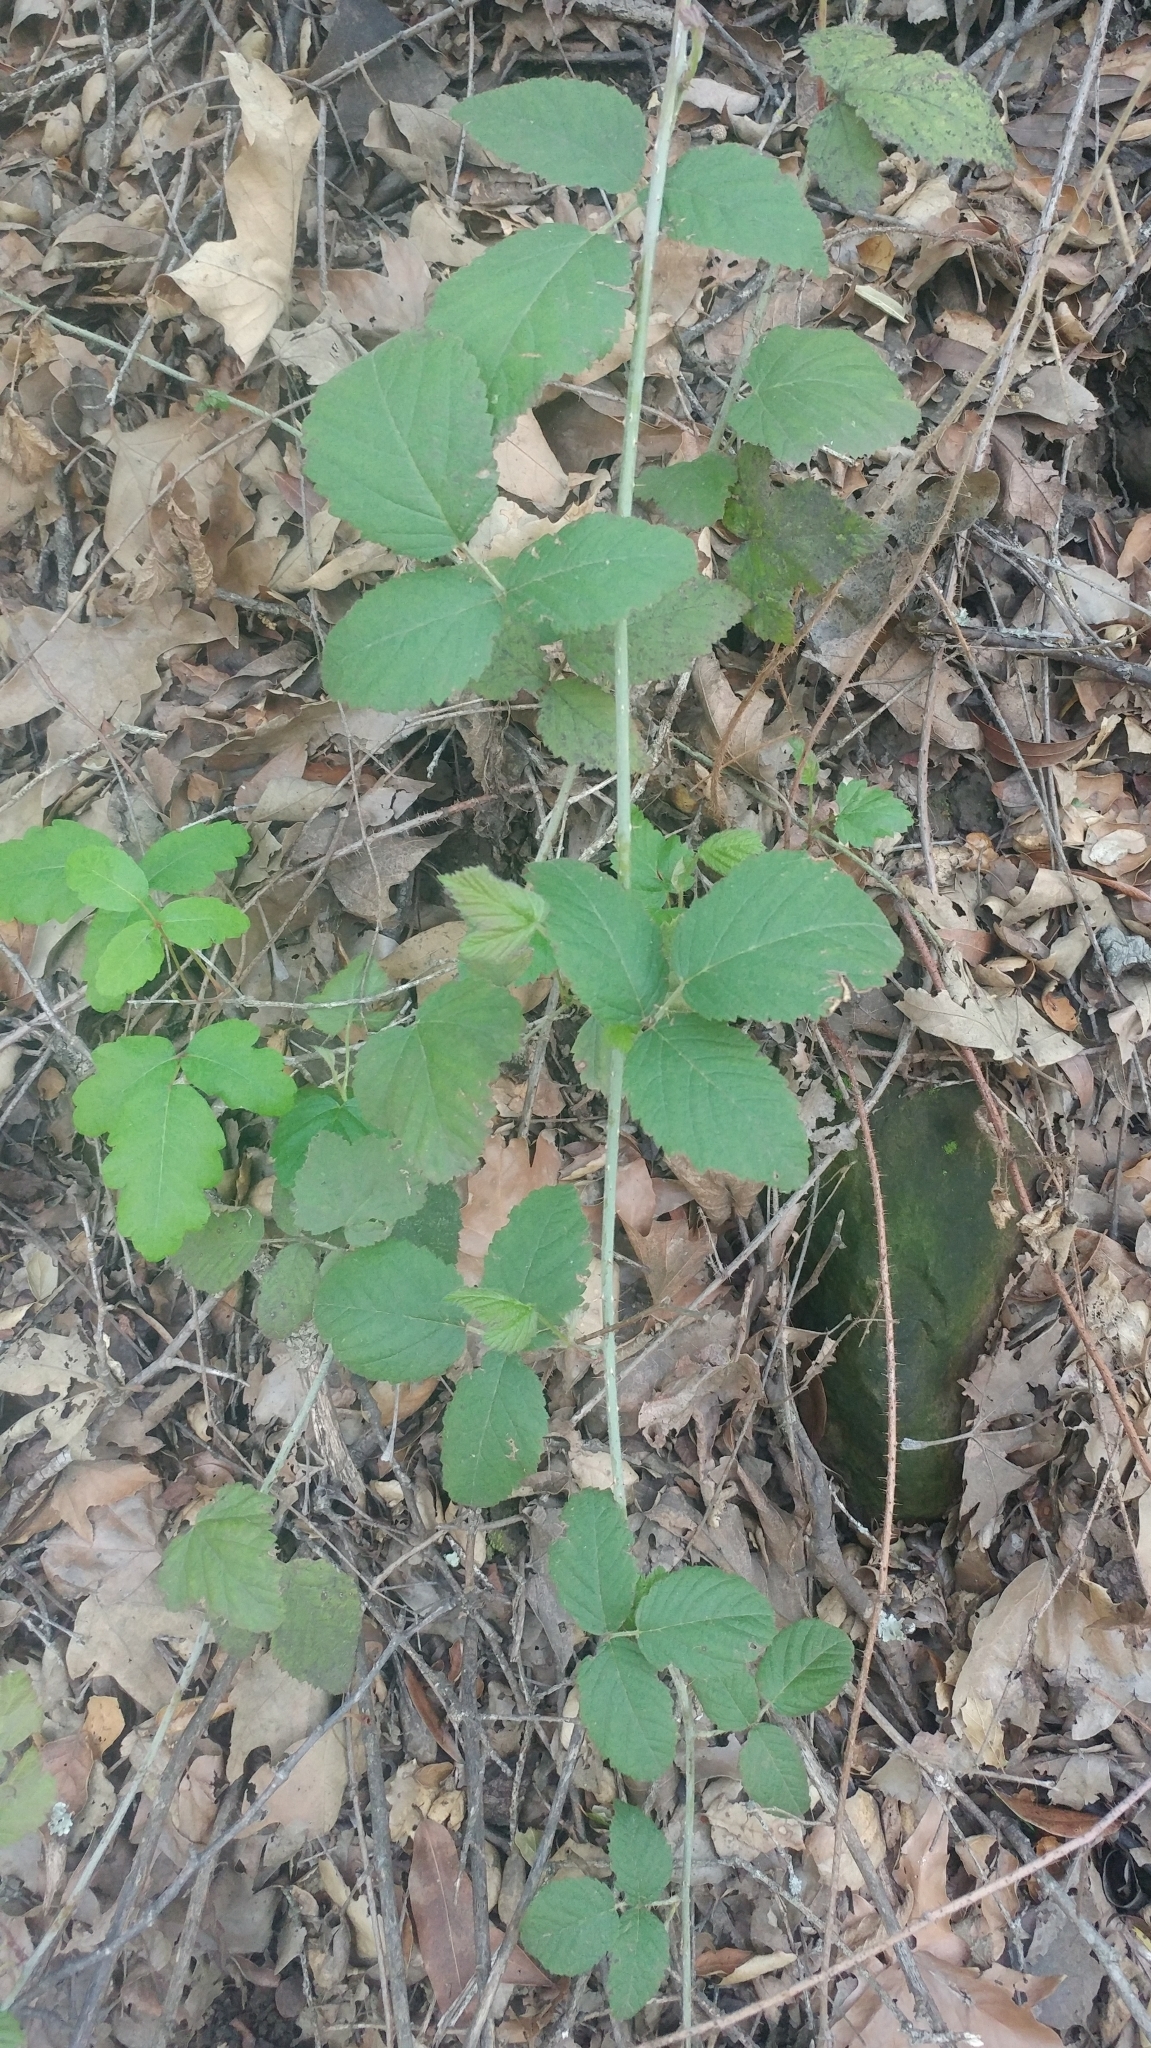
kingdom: Plantae
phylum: Tracheophyta
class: Magnoliopsida
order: Rosales
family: Rosaceae
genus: Rubus
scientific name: Rubus ursinus
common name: Pacific blackberry
